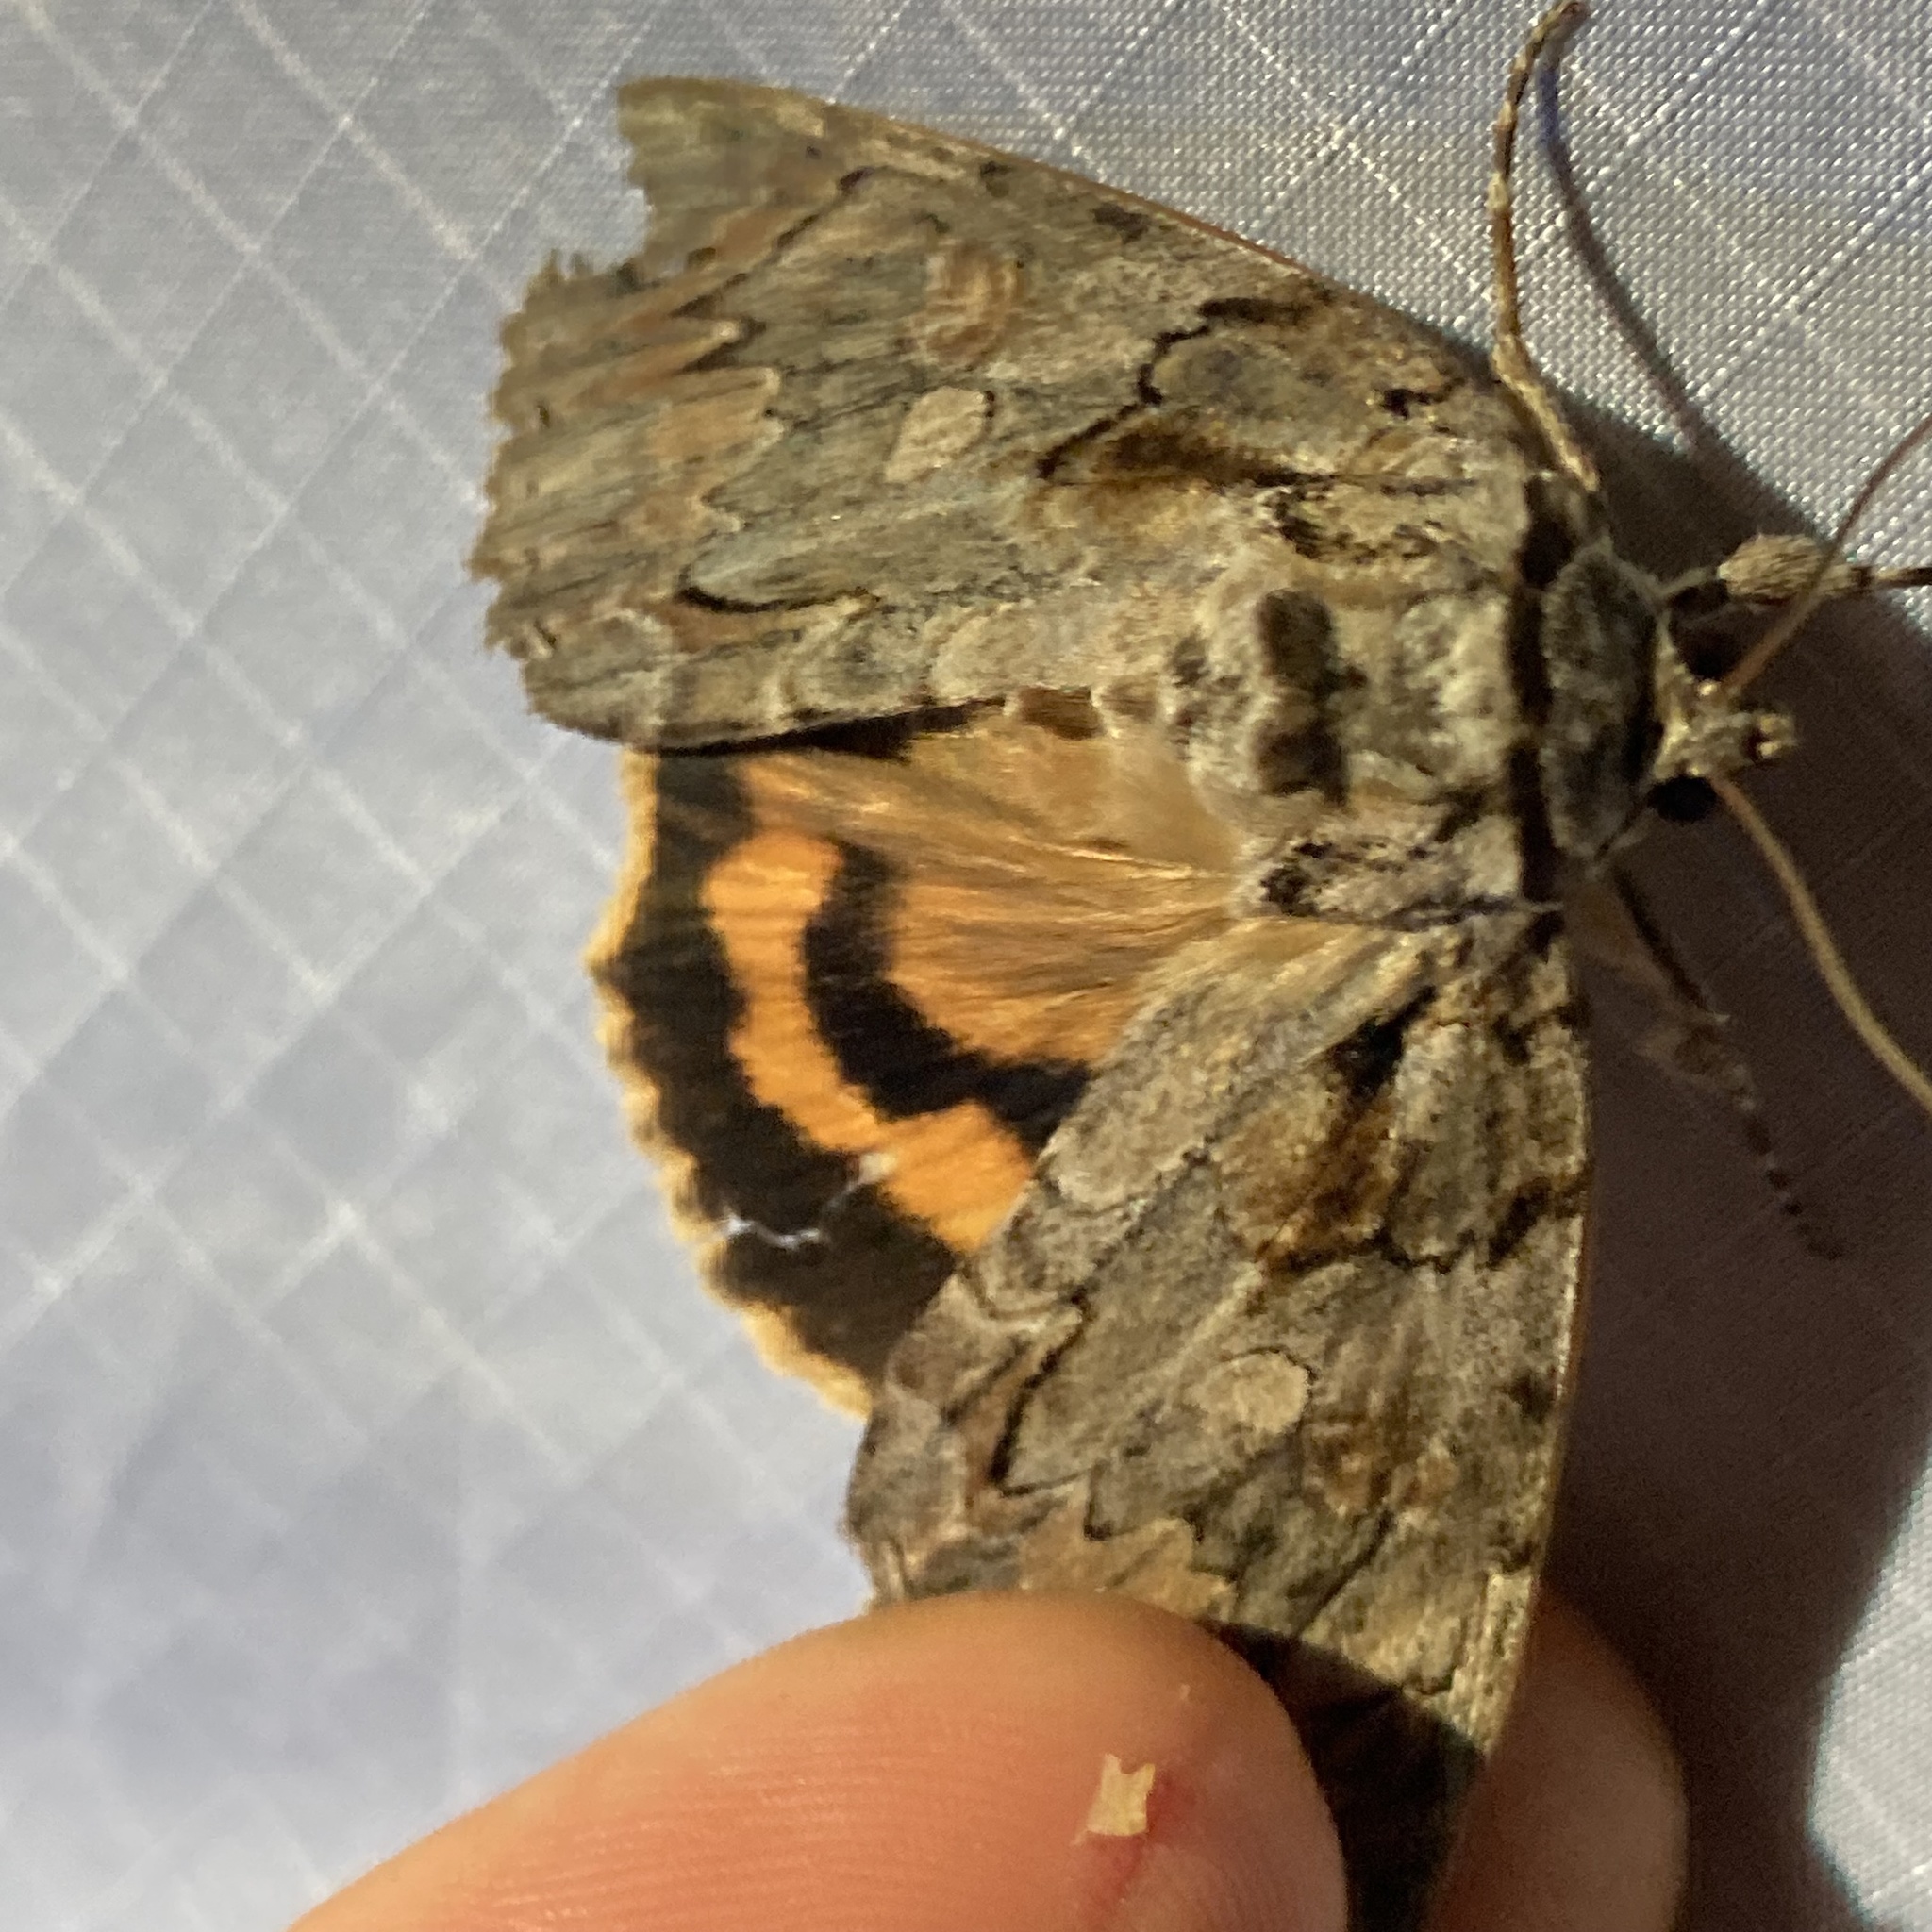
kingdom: Animalia
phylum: Arthropoda
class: Insecta
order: Lepidoptera
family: Erebidae
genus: Catocala
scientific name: Catocala neogama
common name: Bride underwing
